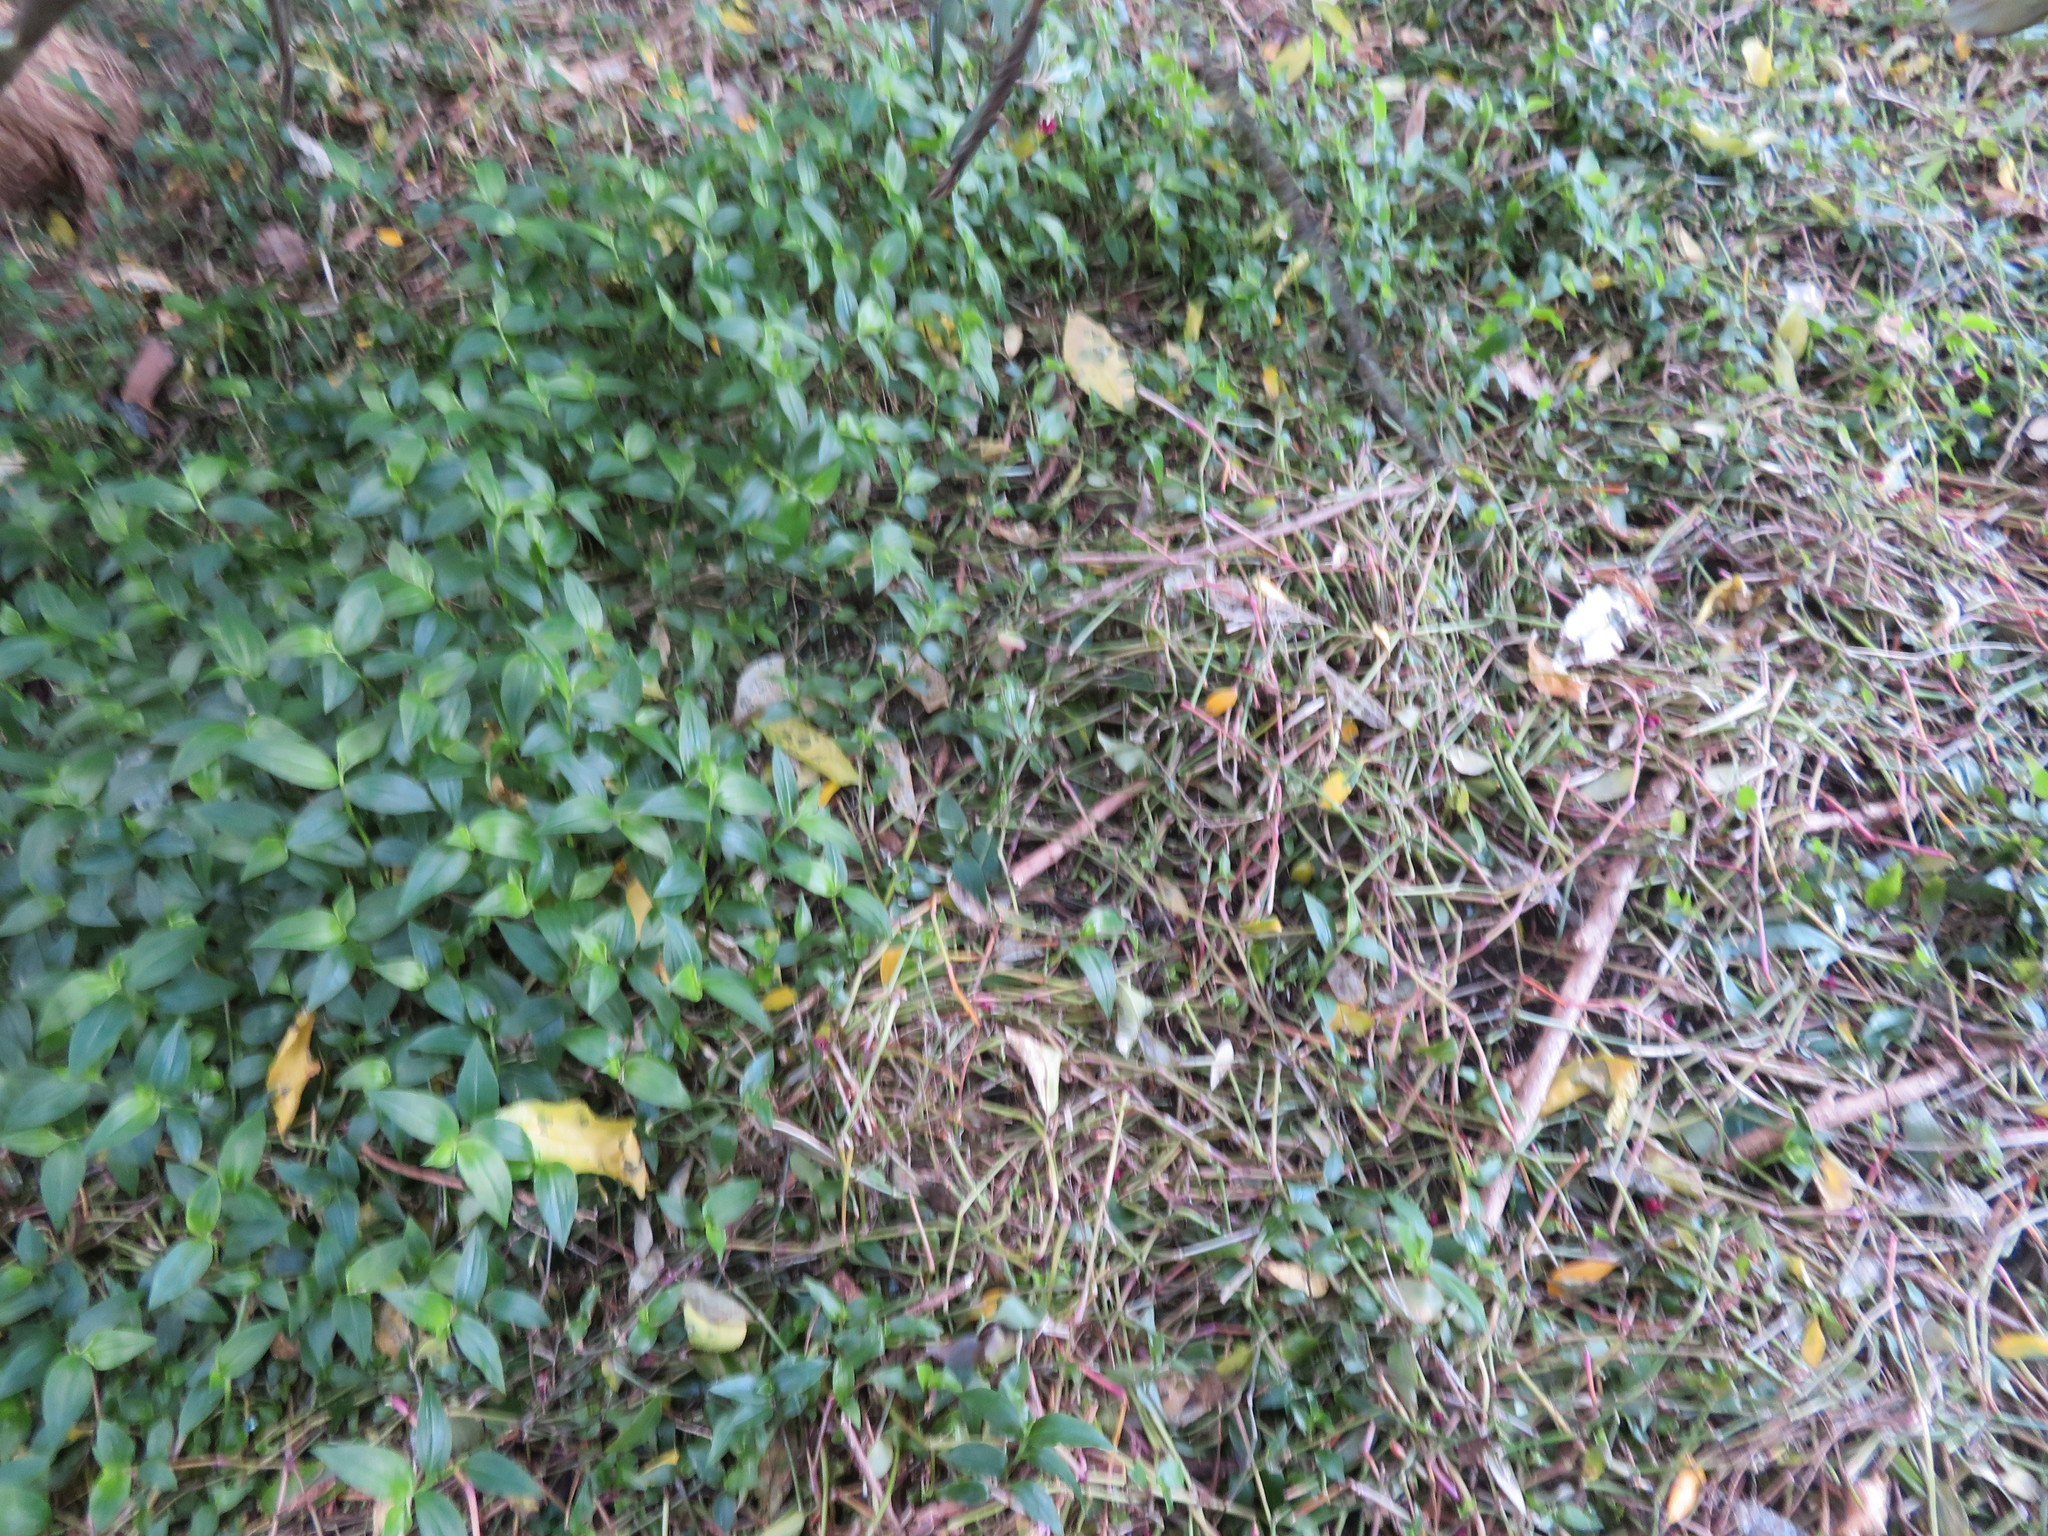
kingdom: Plantae
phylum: Tracheophyta
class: Liliopsida
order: Commelinales
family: Commelinaceae
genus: Tradescantia
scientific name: Tradescantia fluminensis
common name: Wandering-jew
